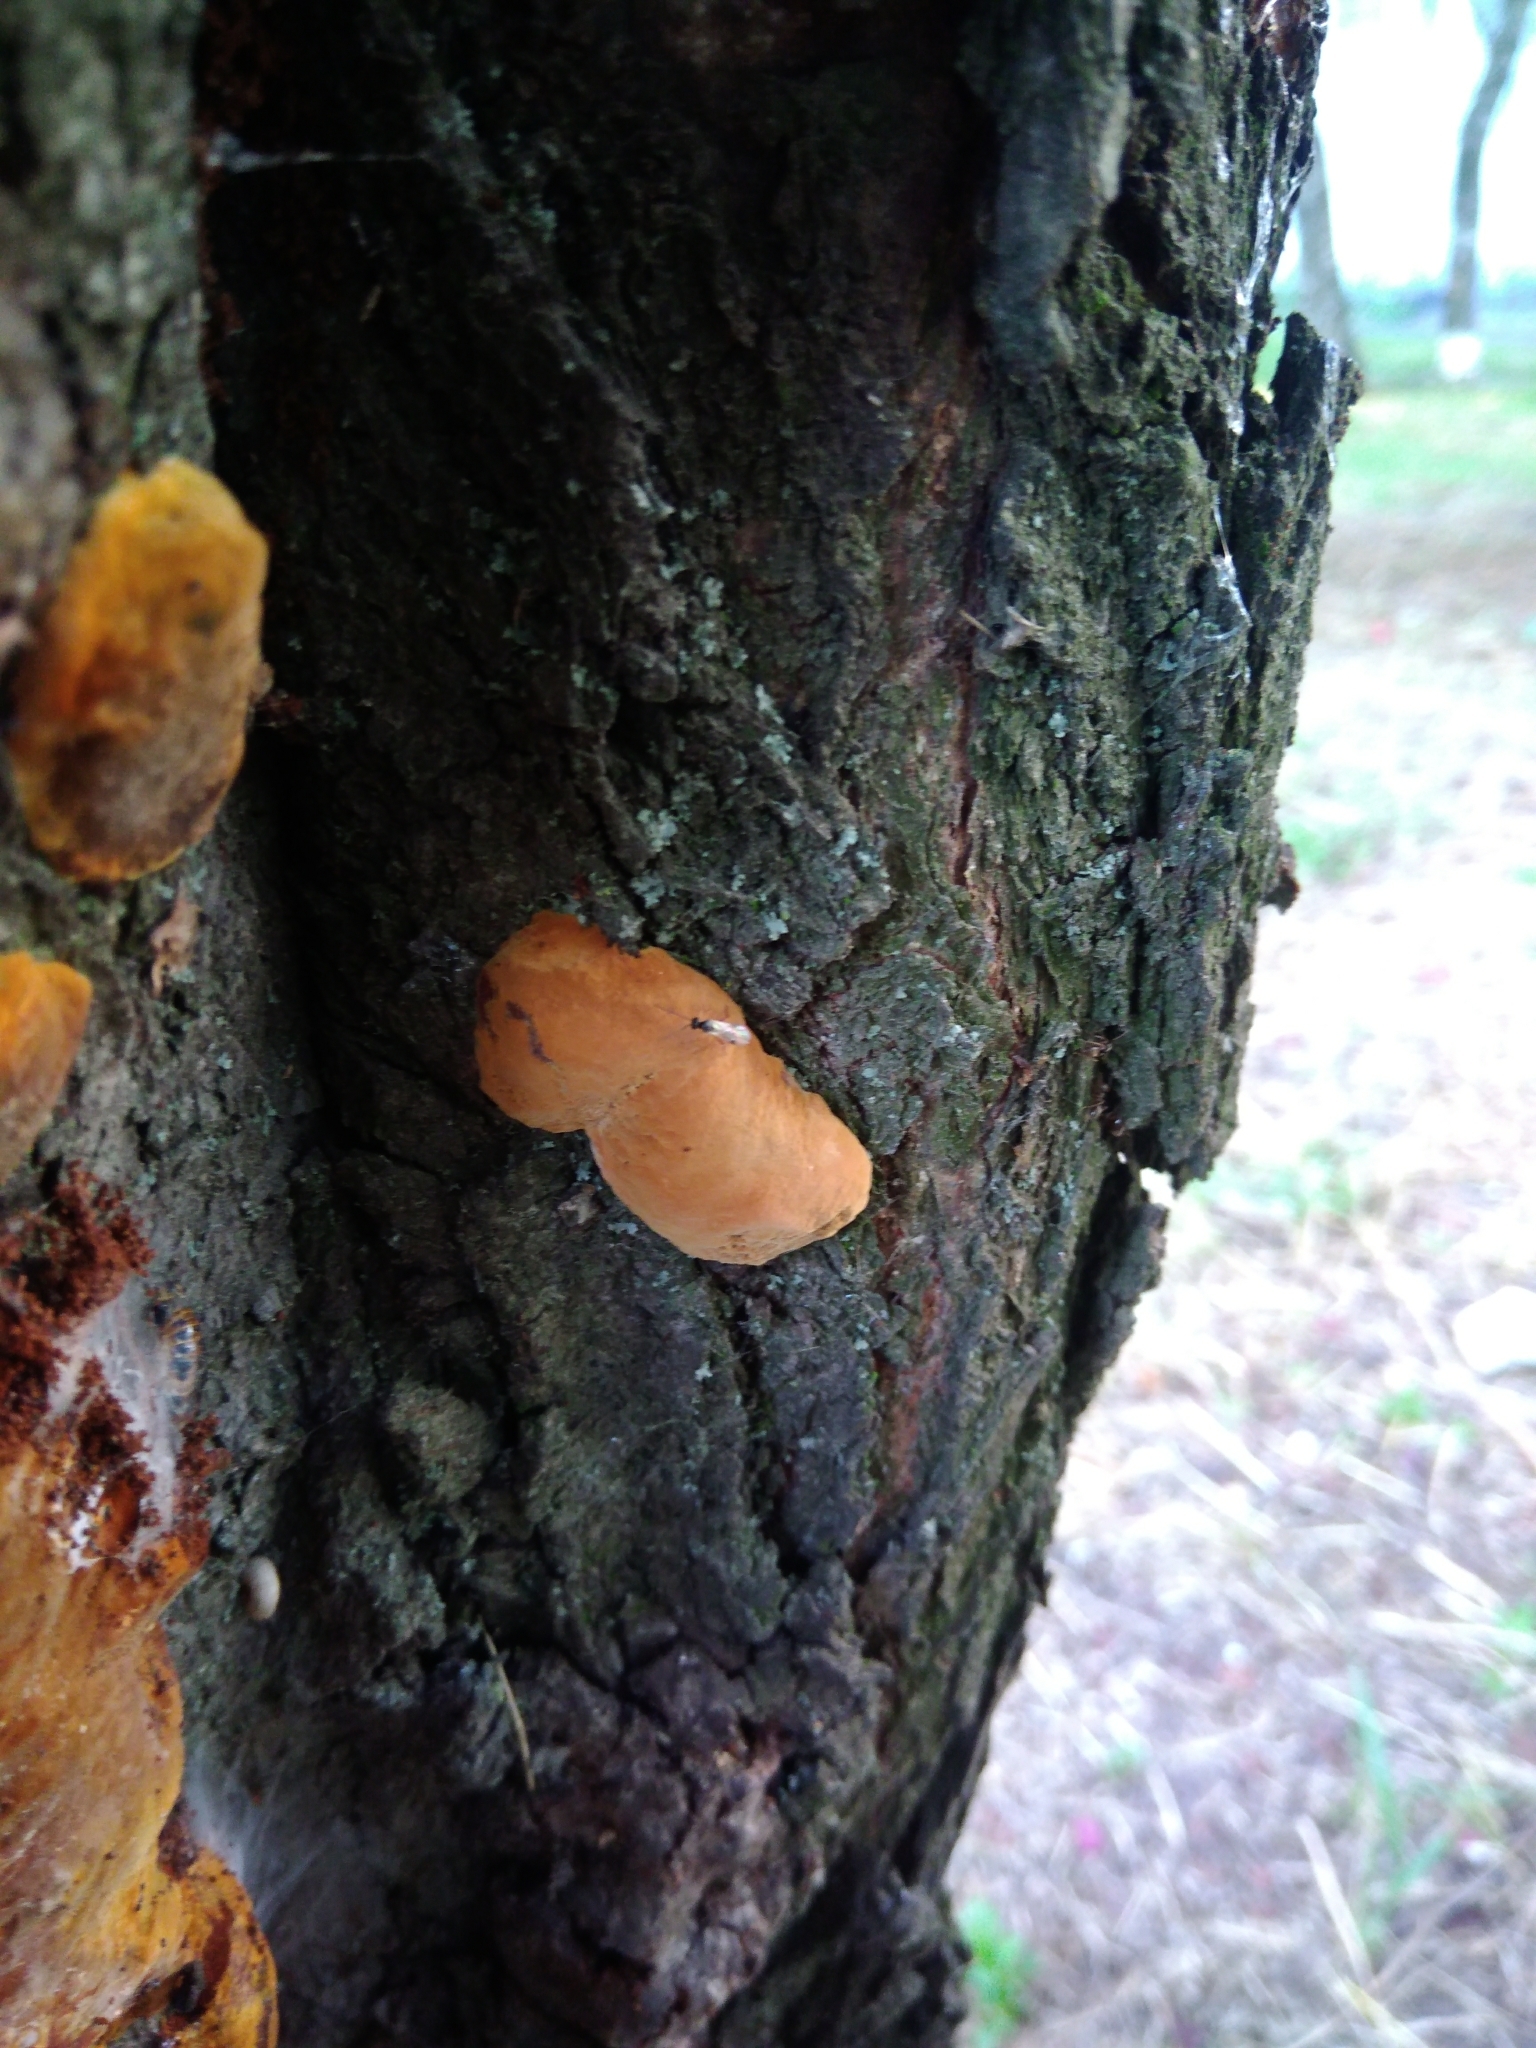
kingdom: Fungi
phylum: Basidiomycota
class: Agaricomycetes
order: Hymenochaetales
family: Hymenochaetaceae
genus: Phellinus
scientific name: Phellinus pomaceus
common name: Cushion bracket
